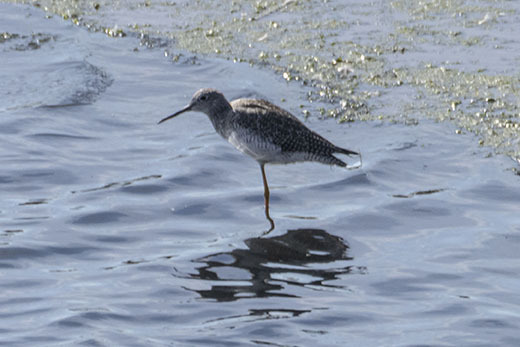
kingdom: Animalia
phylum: Chordata
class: Aves
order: Charadriiformes
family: Scolopacidae
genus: Tringa
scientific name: Tringa flavipes
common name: Lesser yellowlegs
